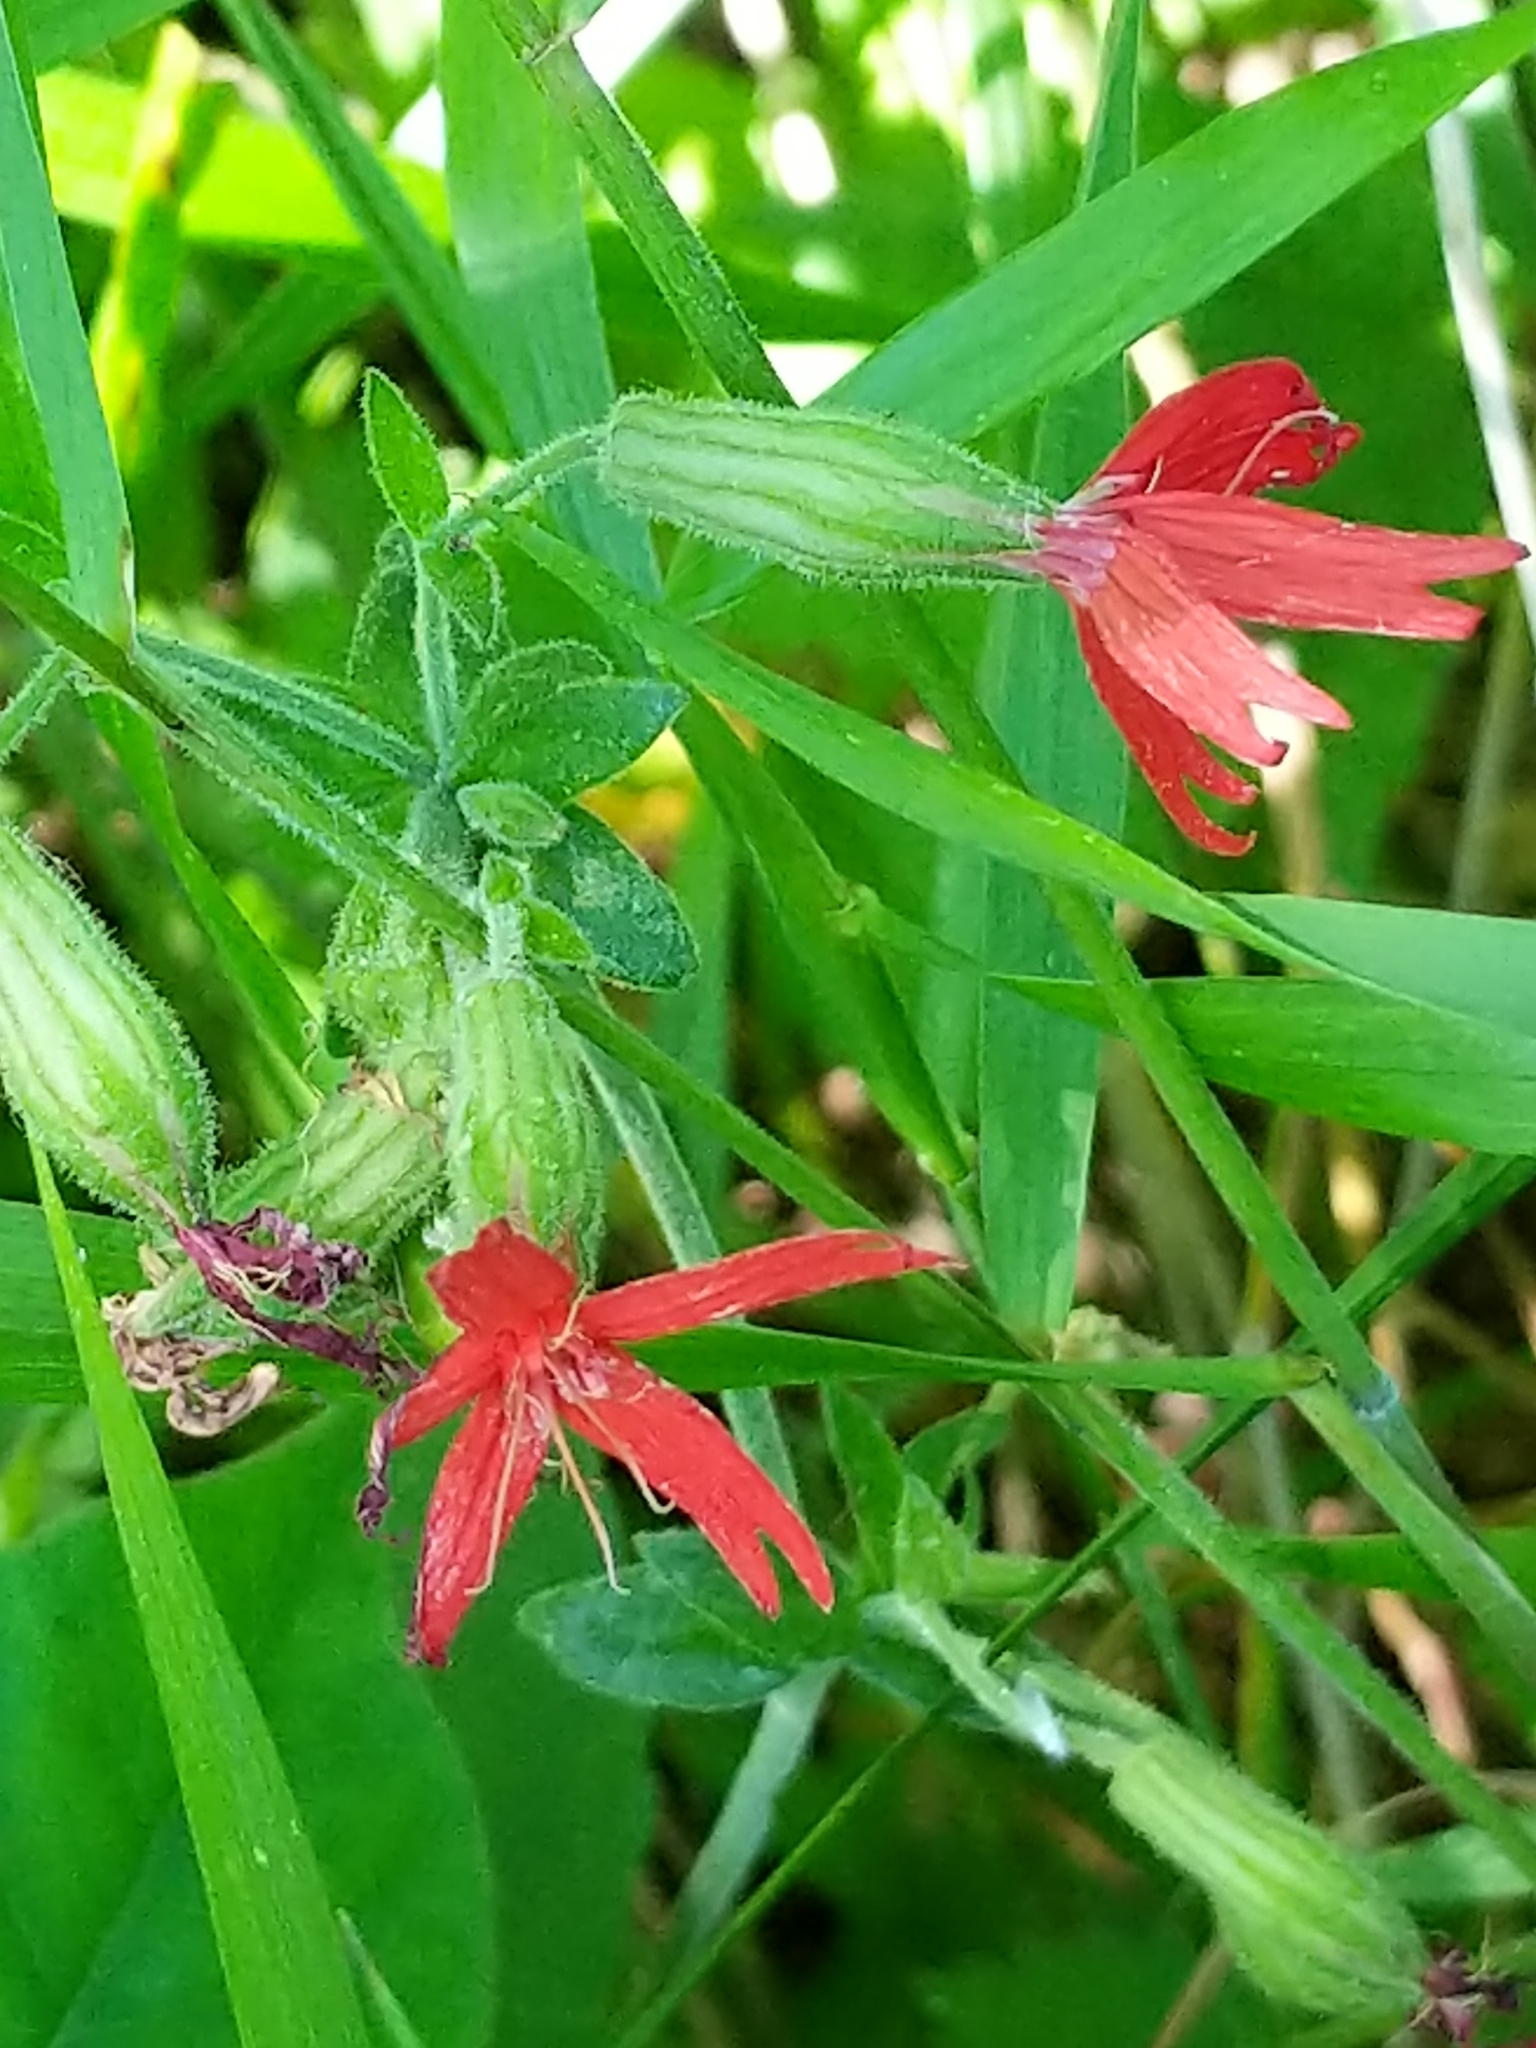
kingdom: Plantae
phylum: Tracheophyta
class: Magnoliopsida
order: Caryophyllales
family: Caryophyllaceae
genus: Silene
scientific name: Silene virginica
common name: Fire-pink
